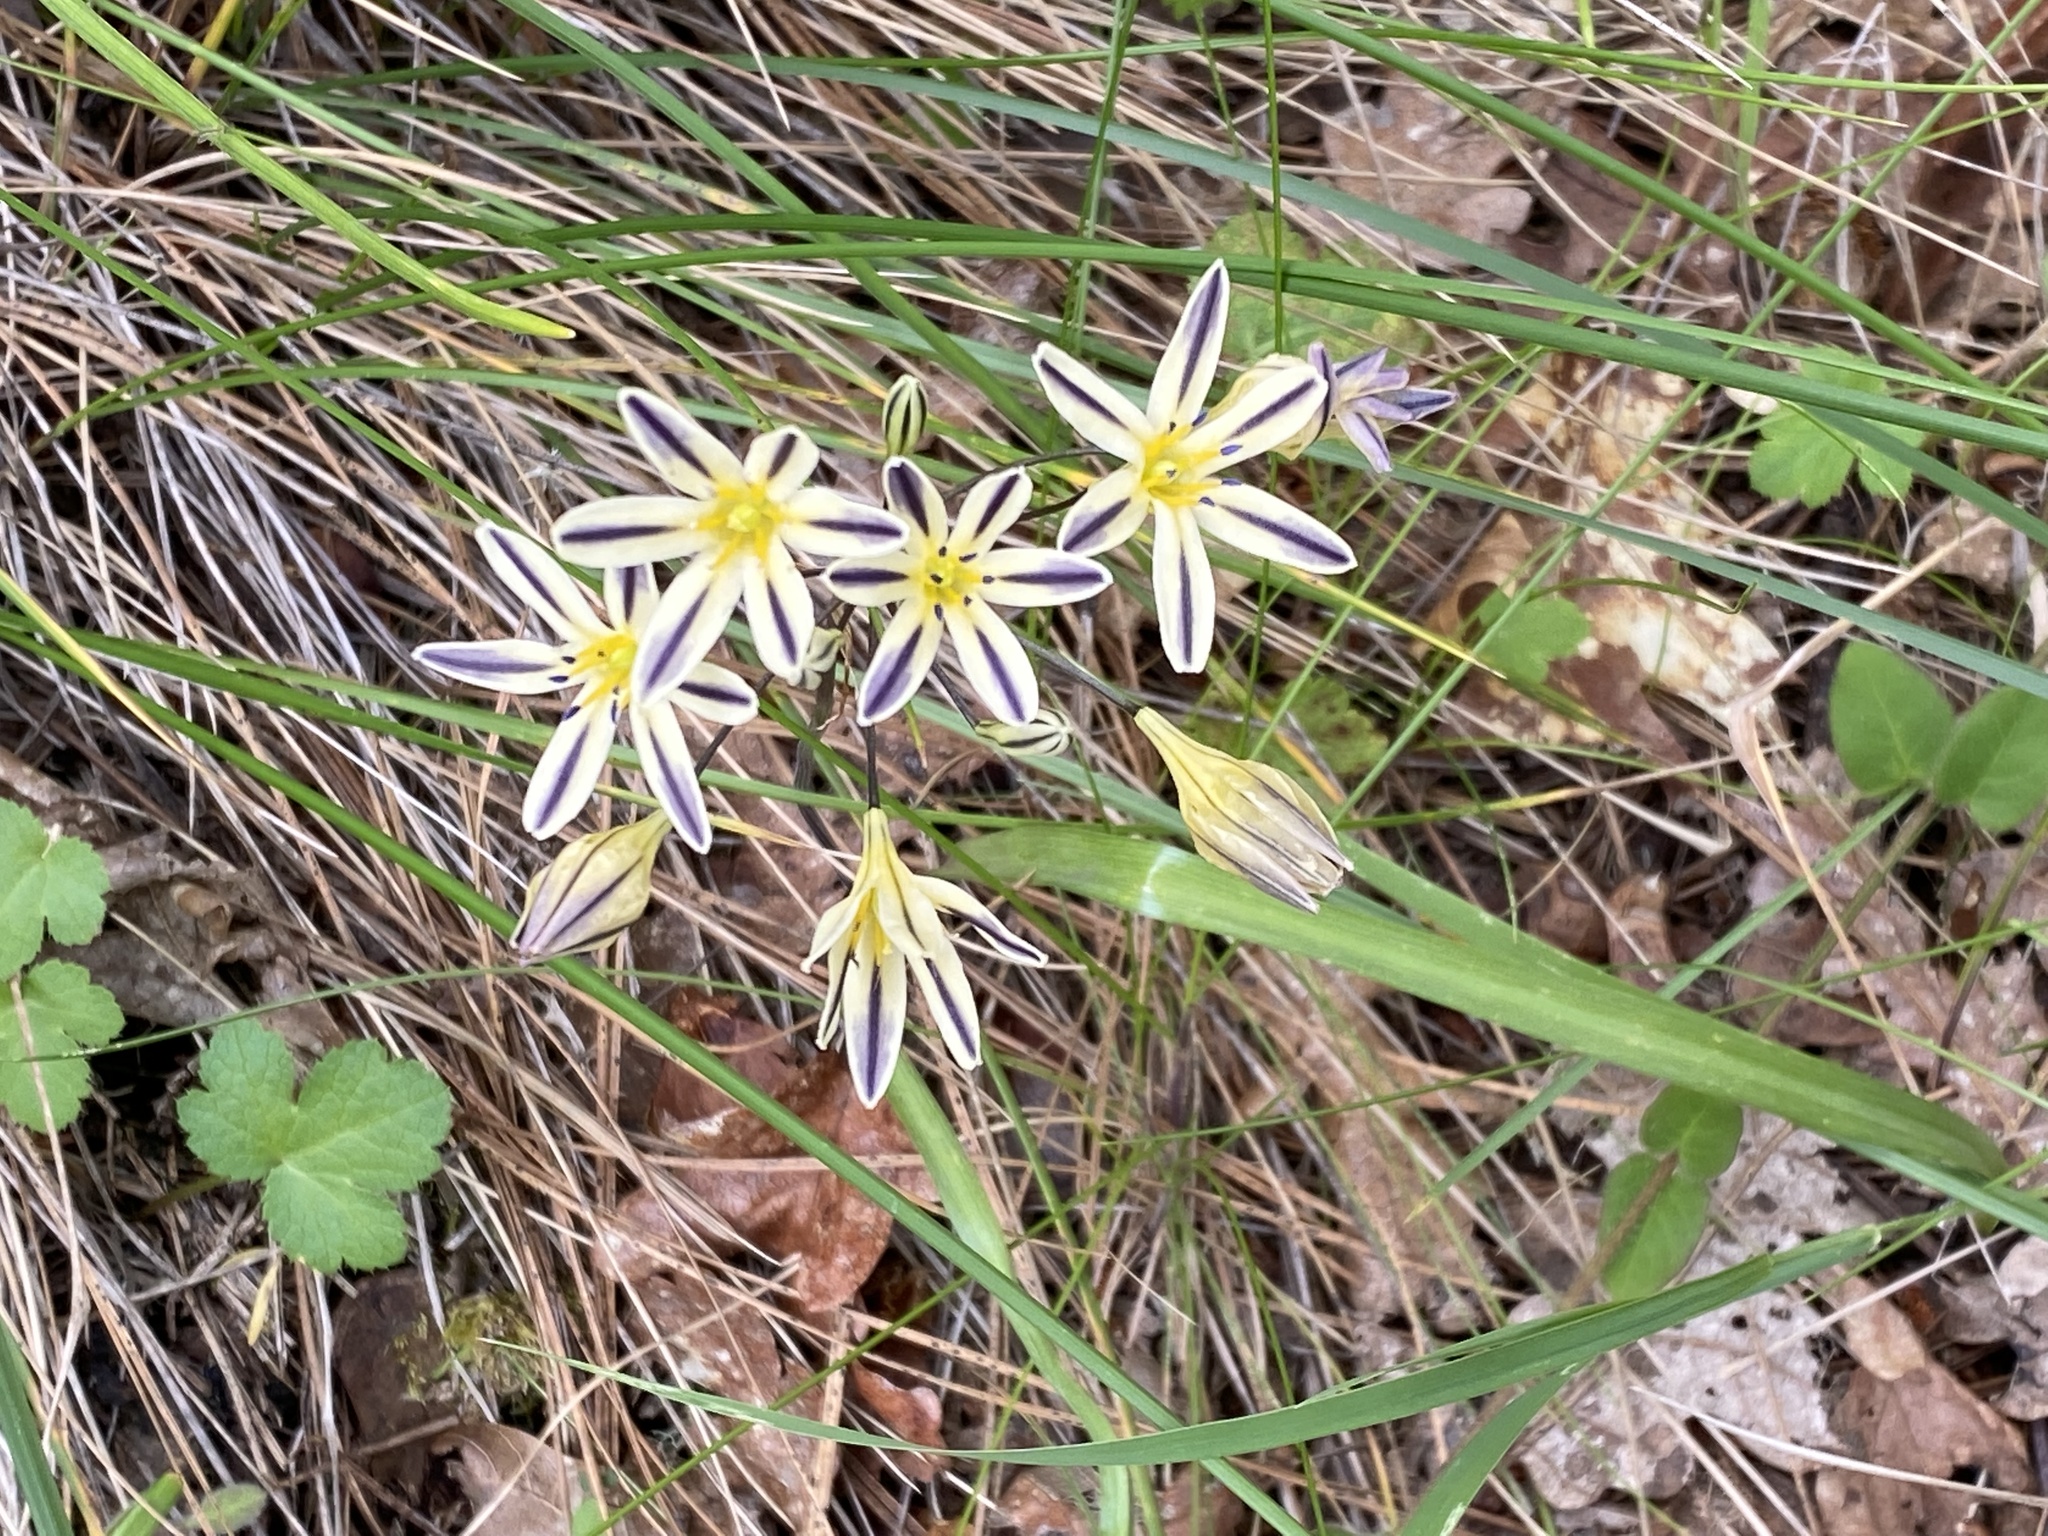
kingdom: Plantae
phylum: Tracheophyta
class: Liliopsida
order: Asparagales
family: Asparagaceae
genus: Triteleia
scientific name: Triteleia hendersonii
